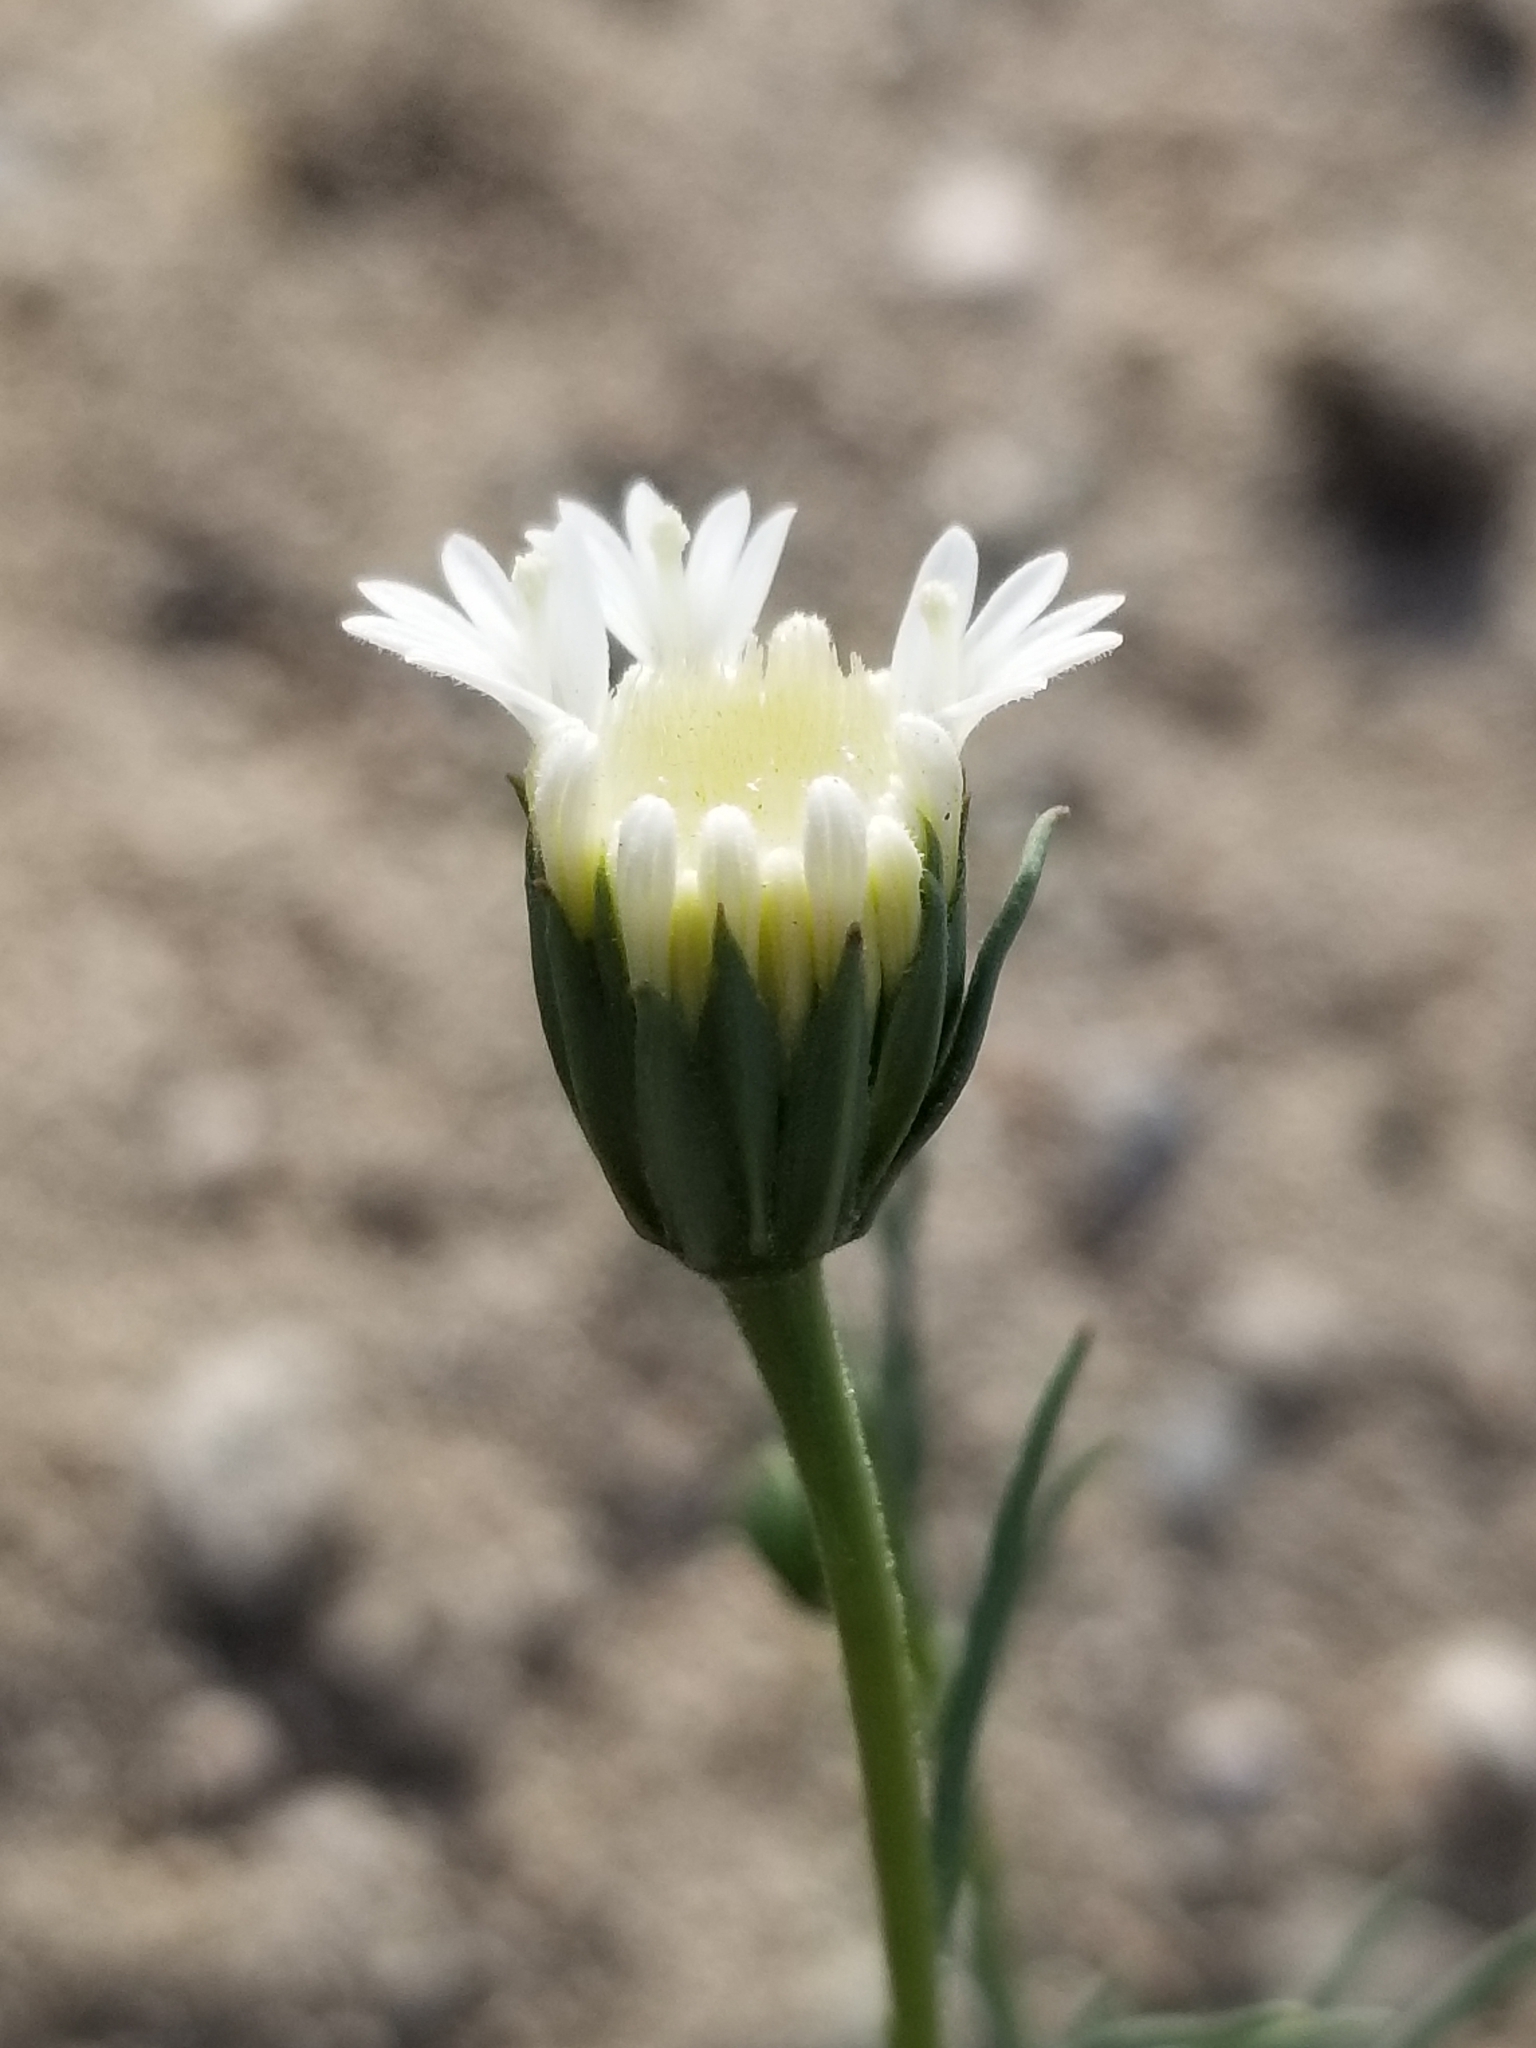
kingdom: Plantae
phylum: Tracheophyta
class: Magnoliopsida
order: Asterales
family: Asteraceae
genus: Chaenactis
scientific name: Chaenactis fremontii
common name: Fremont pincushion
